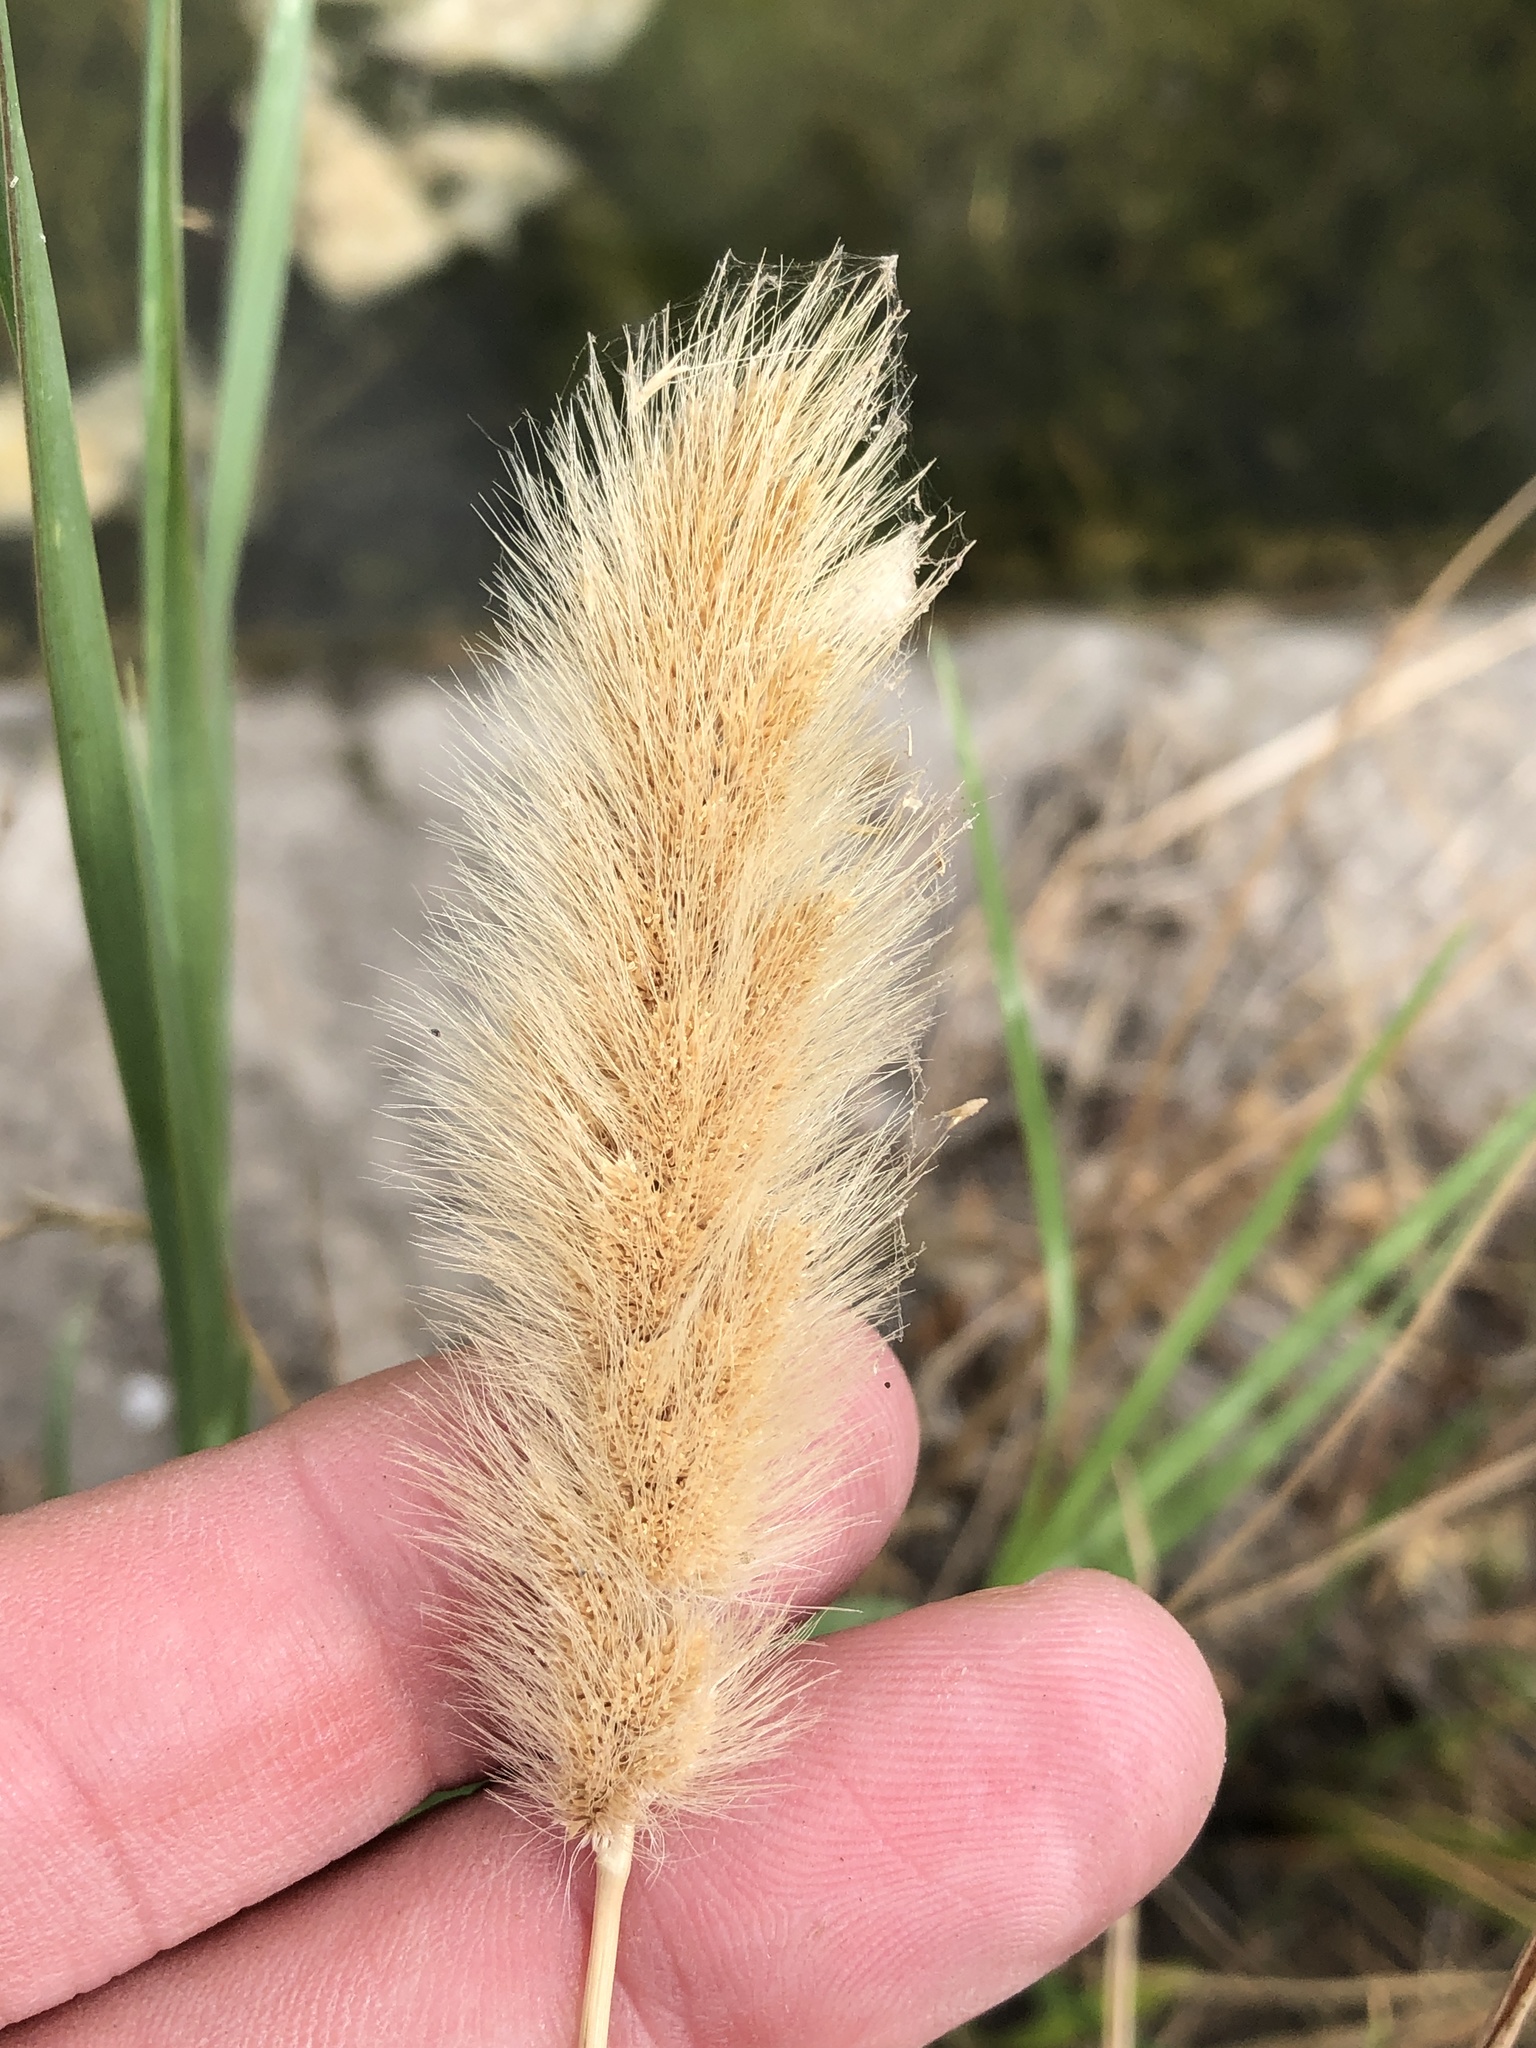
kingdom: Plantae
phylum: Tracheophyta
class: Liliopsida
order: Poales
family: Poaceae
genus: Polypogon
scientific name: Polypogon monspeliensis
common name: Annual rabbitsfoot grass
